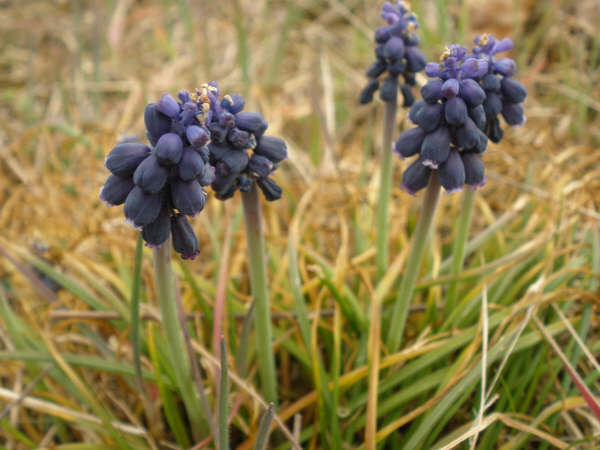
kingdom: Plantae
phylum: Tracheophyta
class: Liliopsida
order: Asparagales
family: Asparagaceae
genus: Muscari
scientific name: Muscari neglectum
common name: Grape-hyacinth
